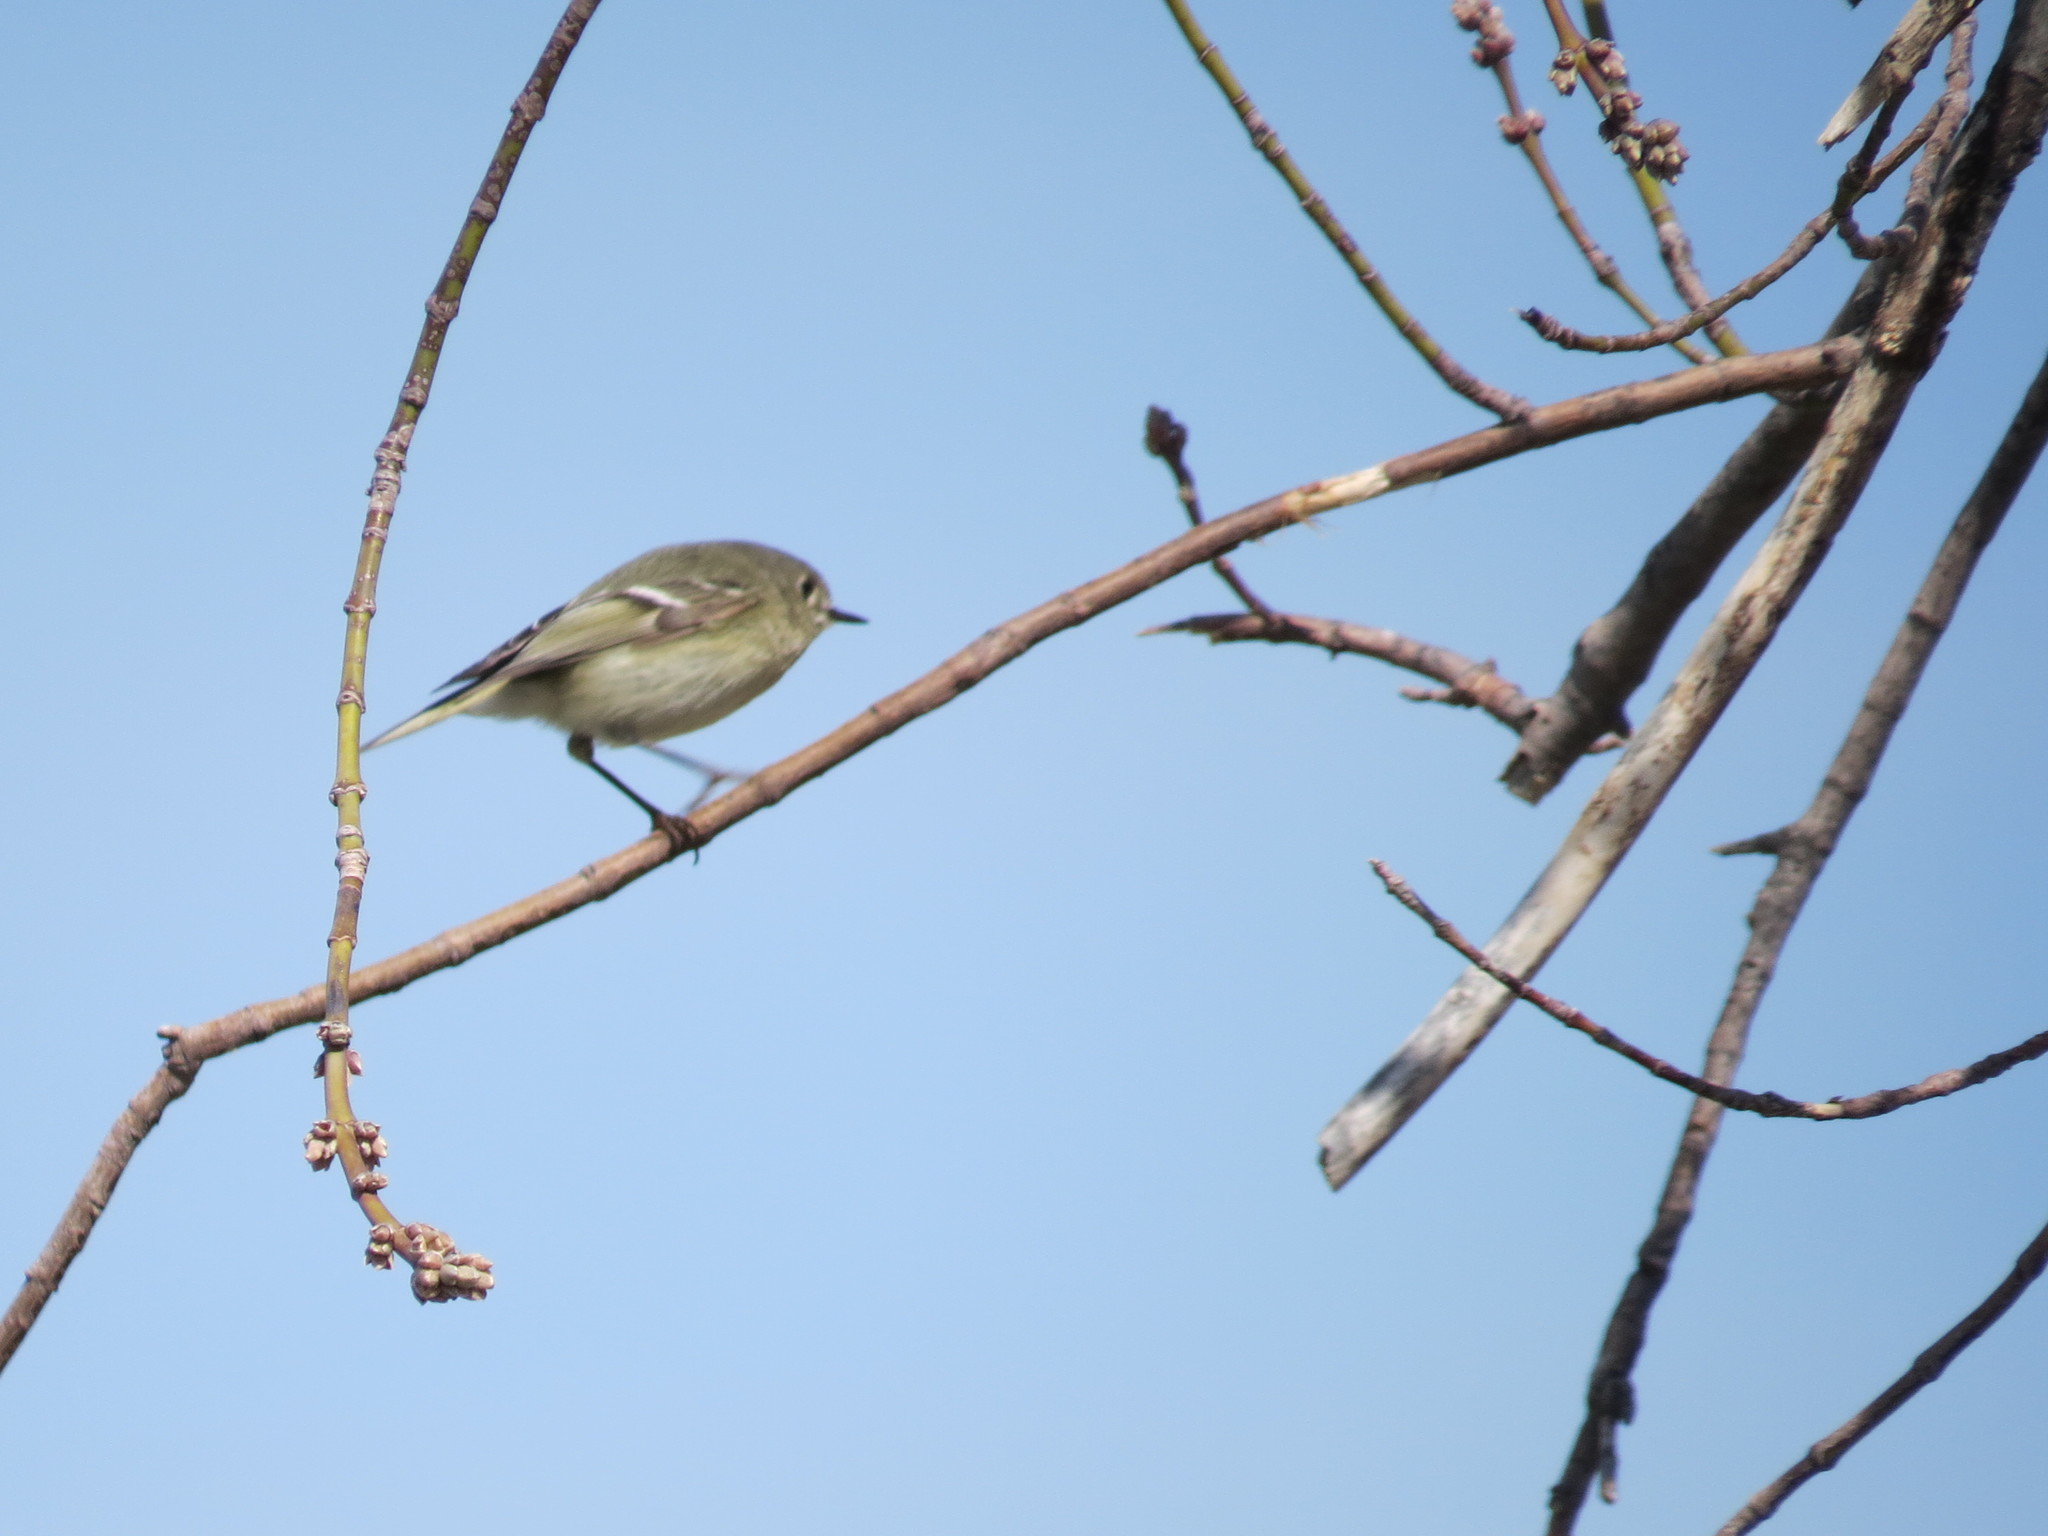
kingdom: Animalia
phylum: Chordata
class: Aves
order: Passeriformes
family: Regulidae
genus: Regulus
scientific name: Regulus calendula
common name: Ruby-crowned kinglet
